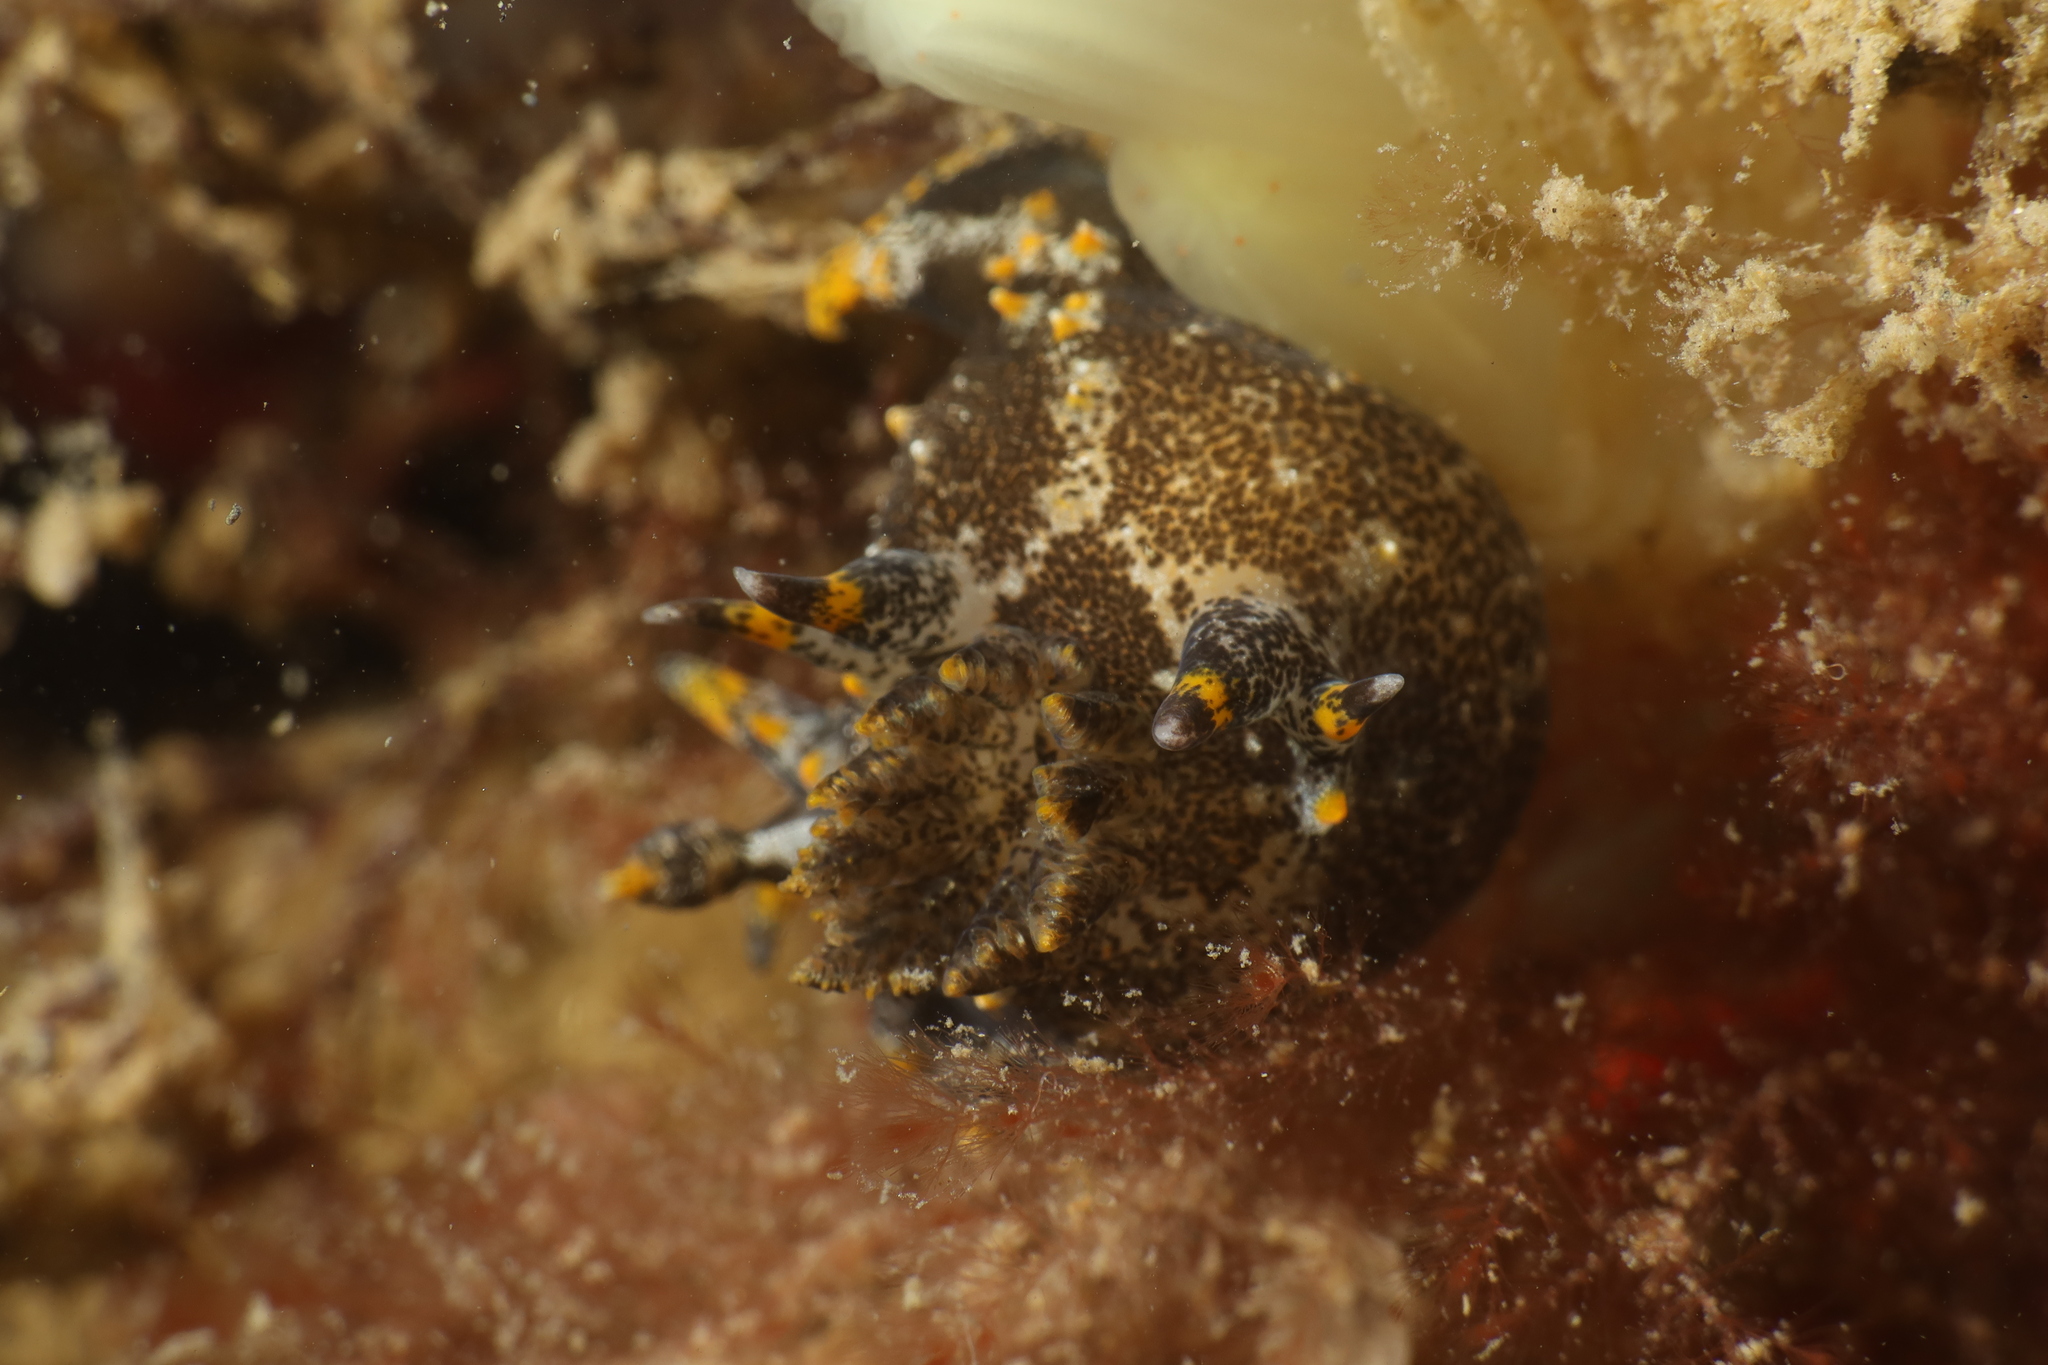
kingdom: Animalia
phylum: Mollusca
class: Gastropoda
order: Nudibranchia
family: Polyceridae
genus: Polycera
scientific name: Polycera hedgpethi
